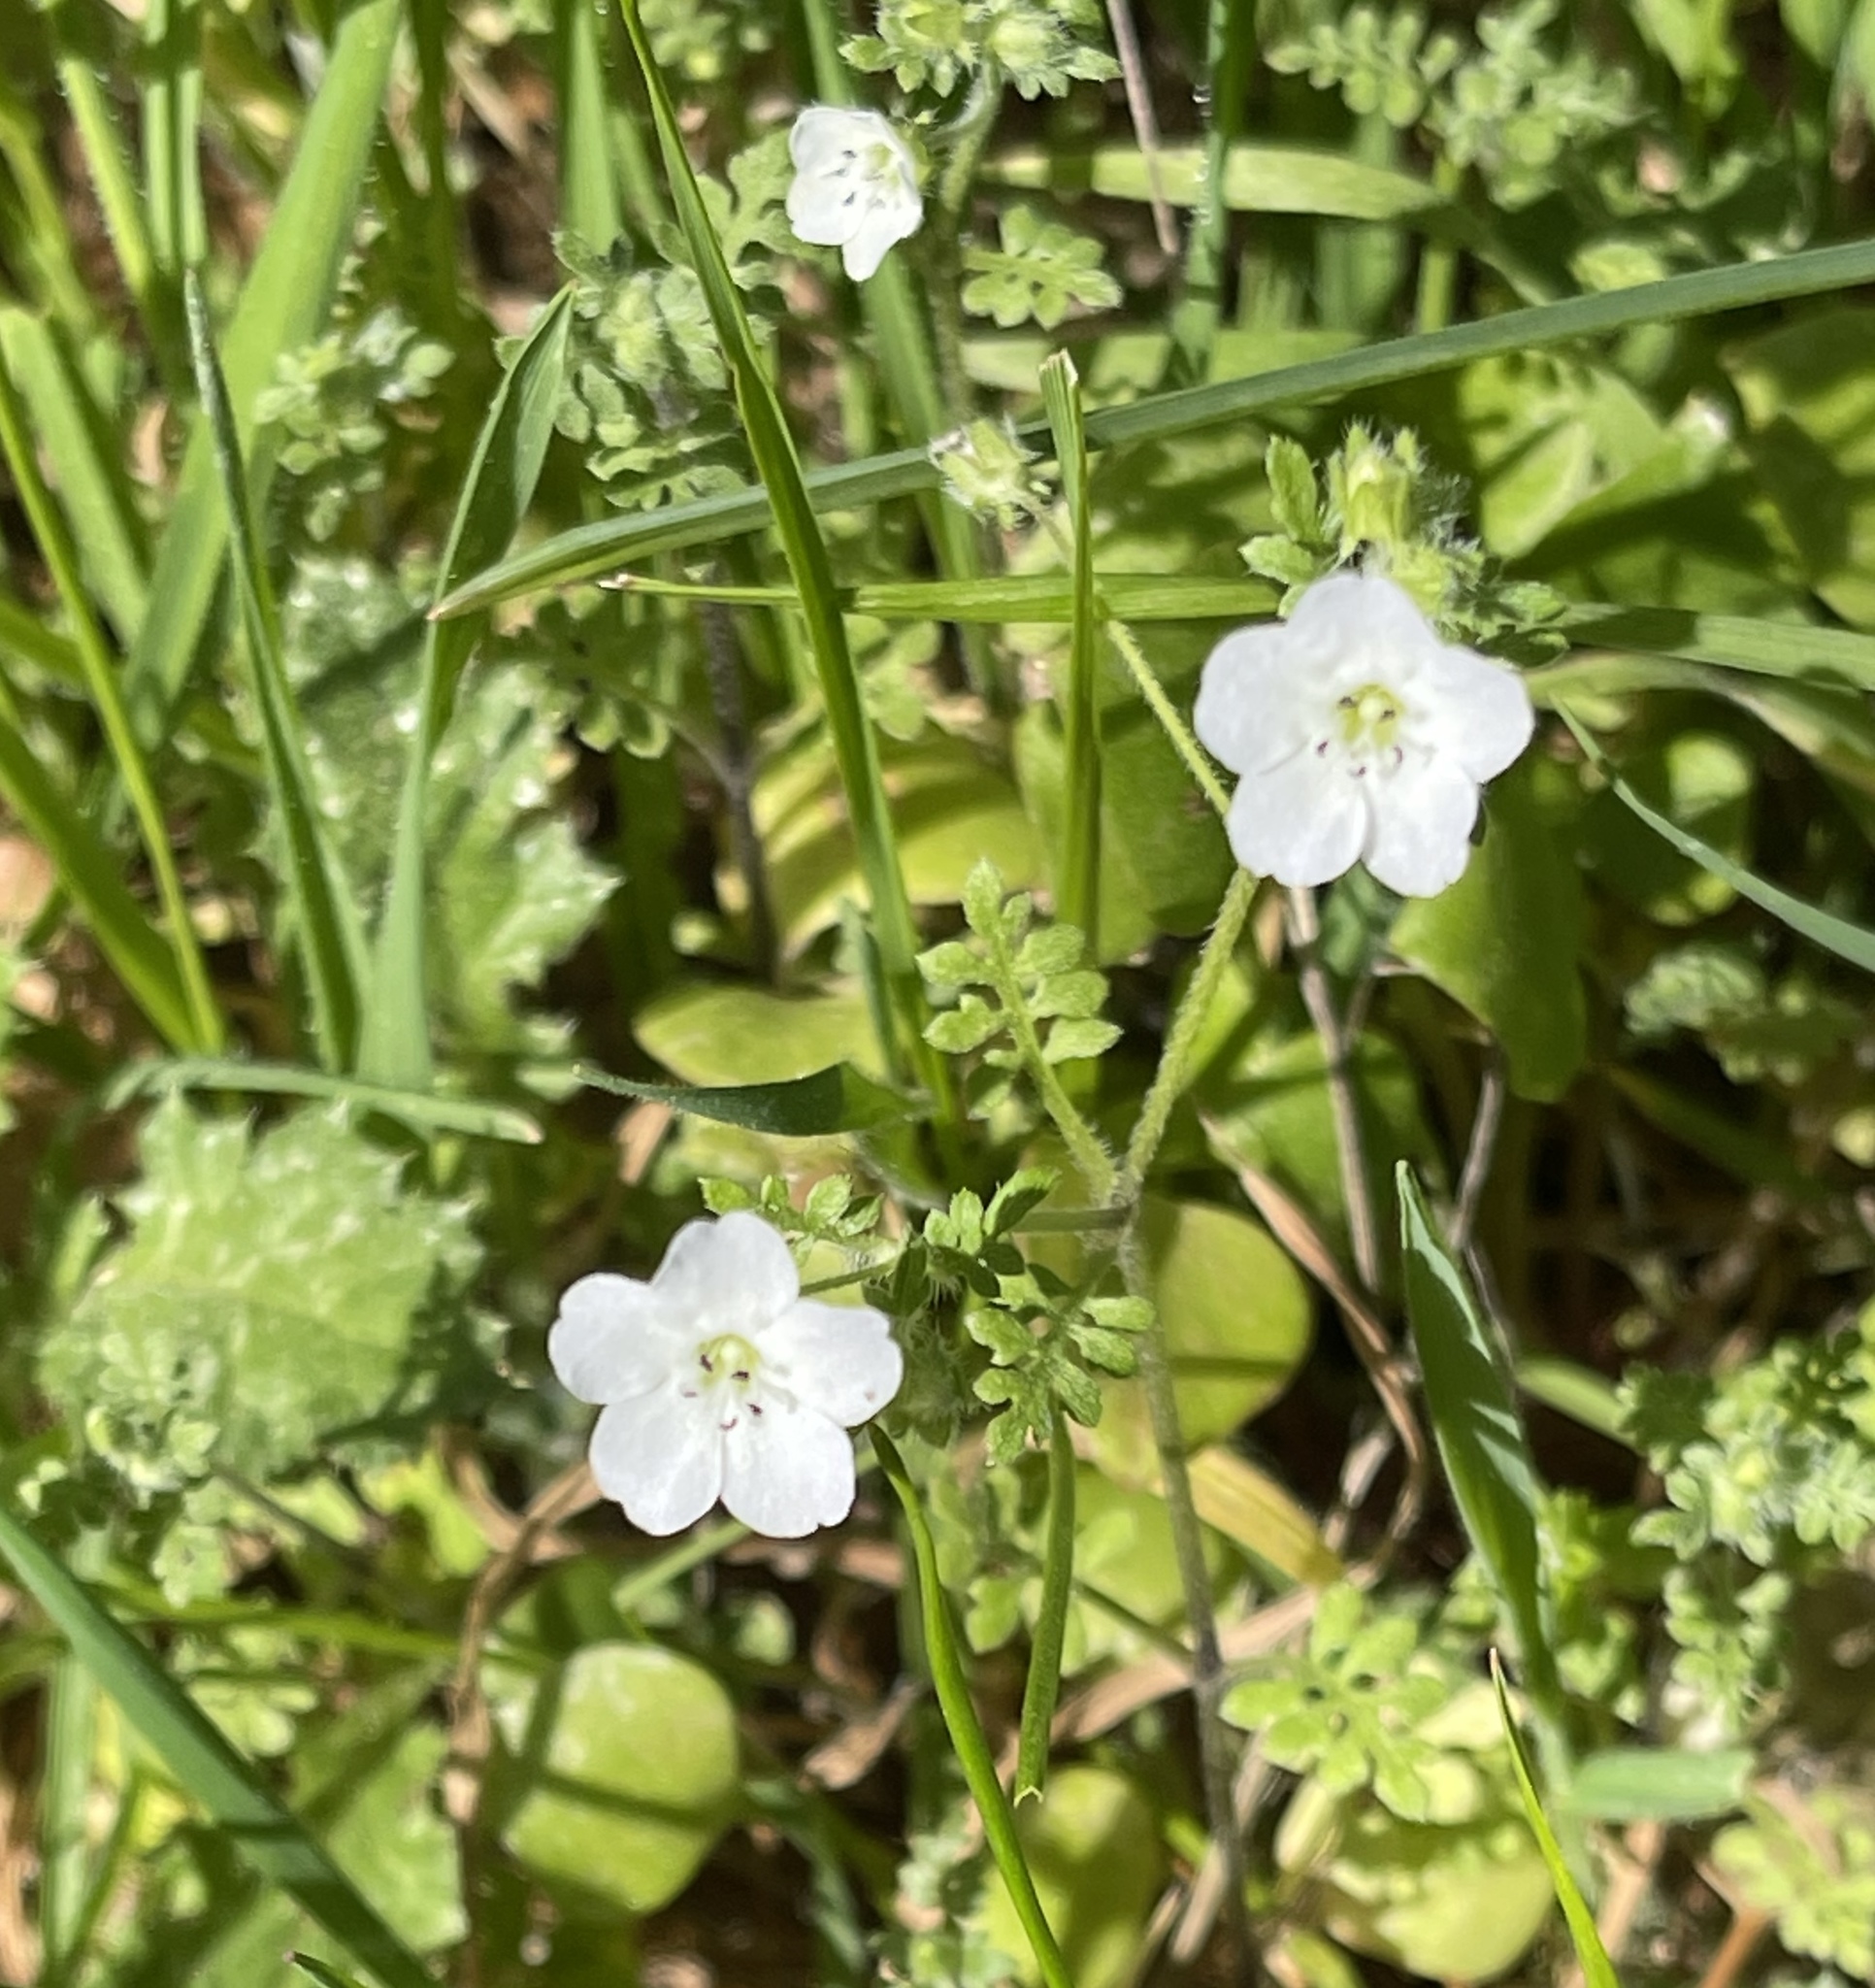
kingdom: Plantae
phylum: Tracheophyta
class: Magnoliopsida
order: Boraginales
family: Hydrophyllaceae
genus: Nemophila
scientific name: Nemophila heterophylla
